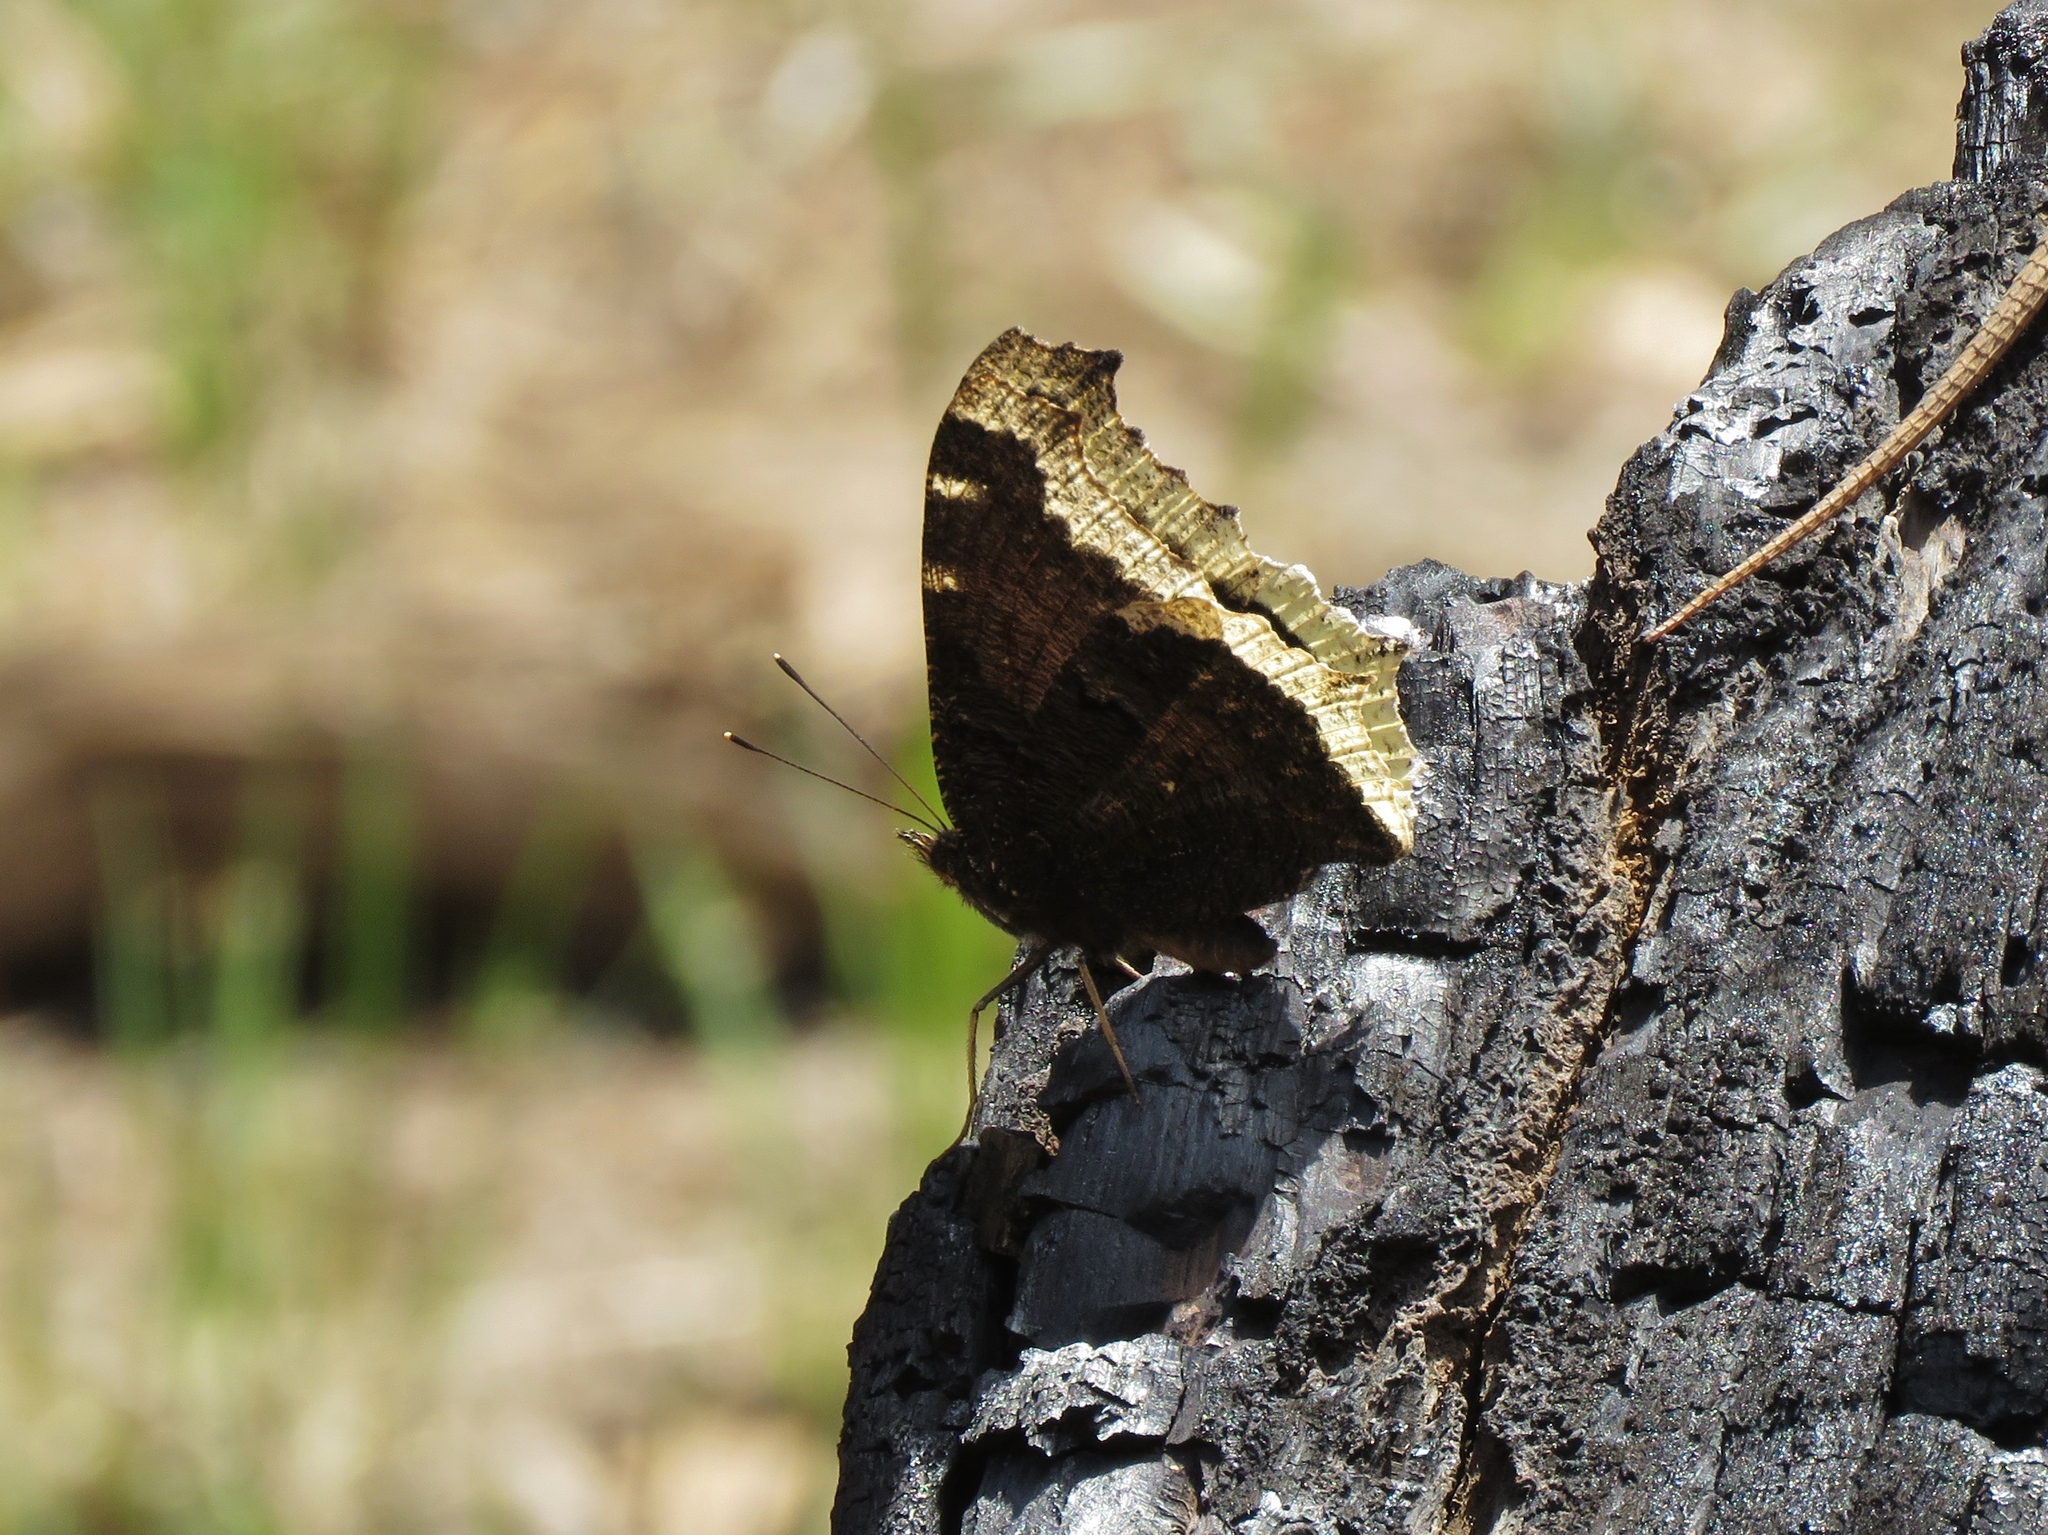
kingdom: Animalia
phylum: Arthropoda
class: Insecta
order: Lepidoptera
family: Nymphalidae
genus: Nymphalis
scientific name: Nymphalis antiopa
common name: Camberwell beauty
